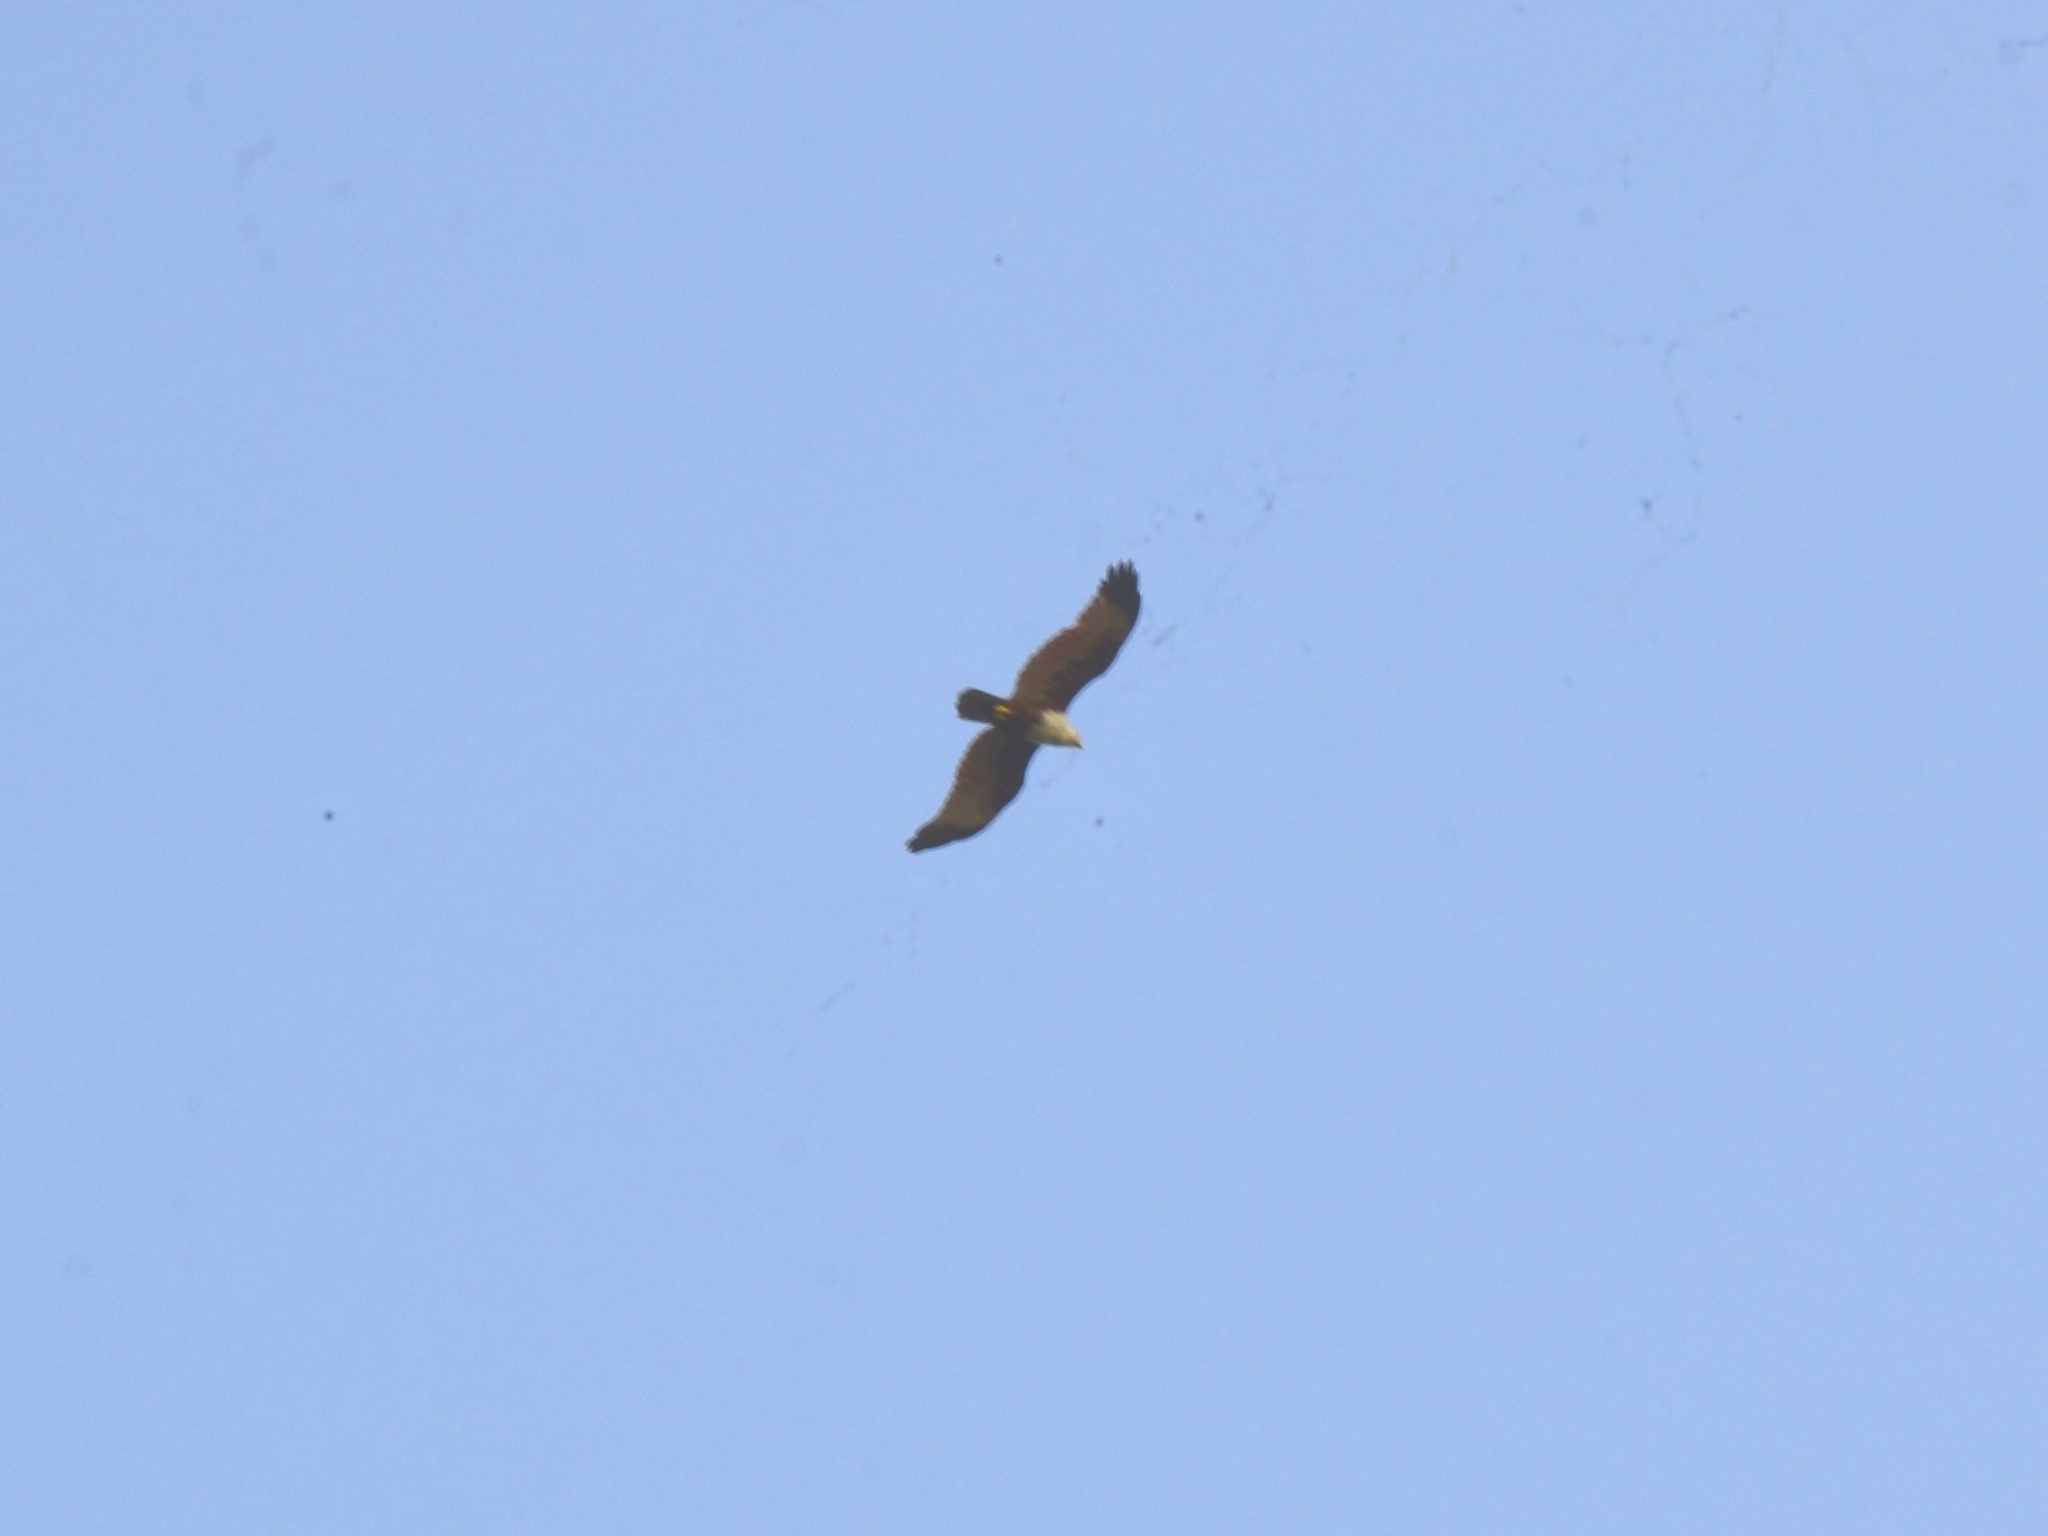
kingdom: Animalia
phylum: Chordata
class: Aves
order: Accipitriformes
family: Accipitridae
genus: Haliastur
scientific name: Haliastur indus
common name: Brahminy kite
